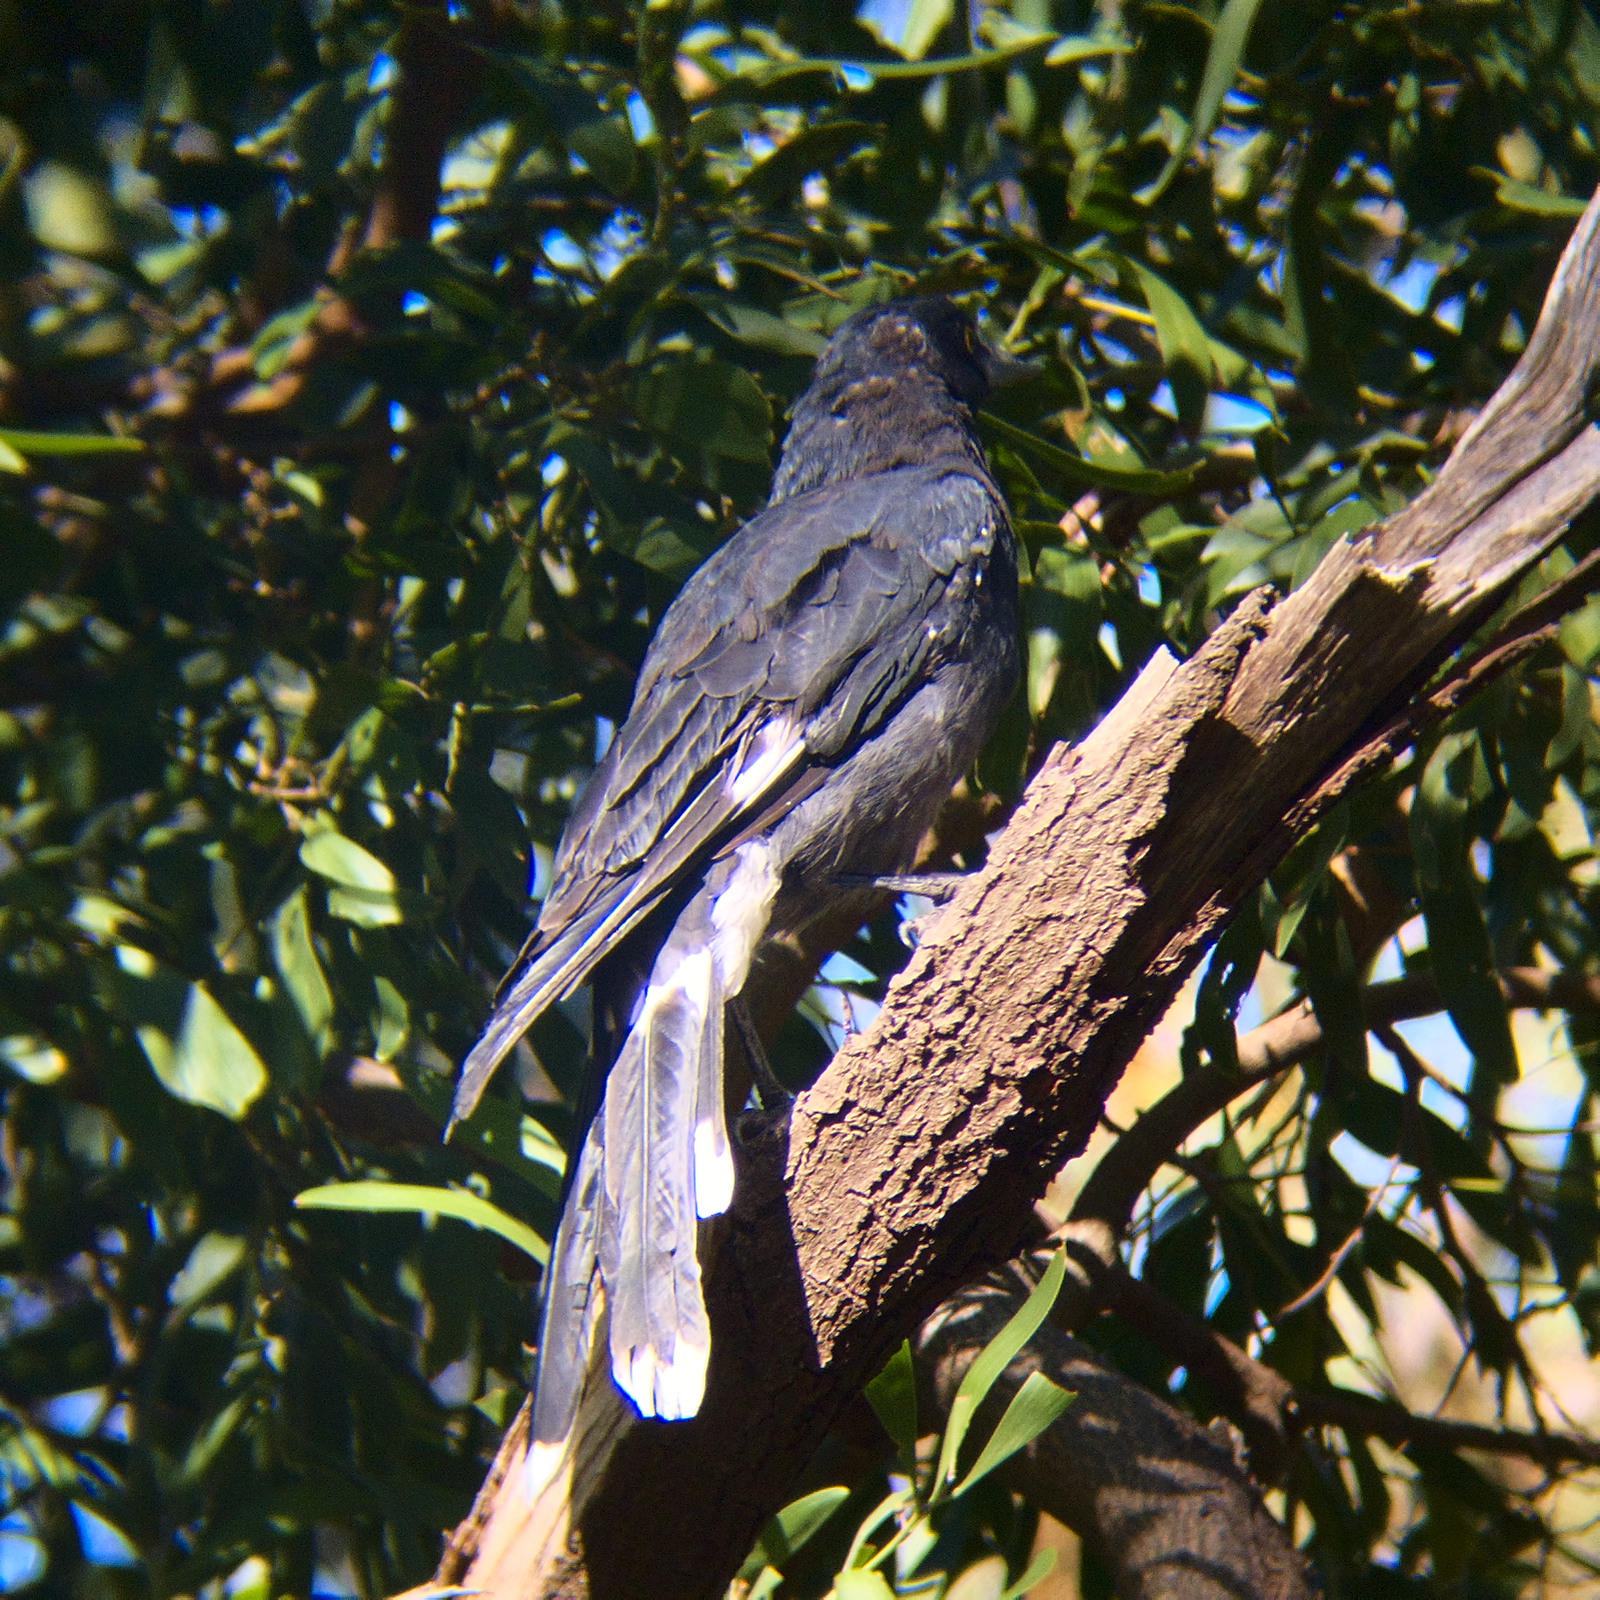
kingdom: Animalia
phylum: Chordata
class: Aves
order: Passeriformes
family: Cracticidae
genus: Strepera
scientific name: Strepera graculina
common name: Pied currawong
